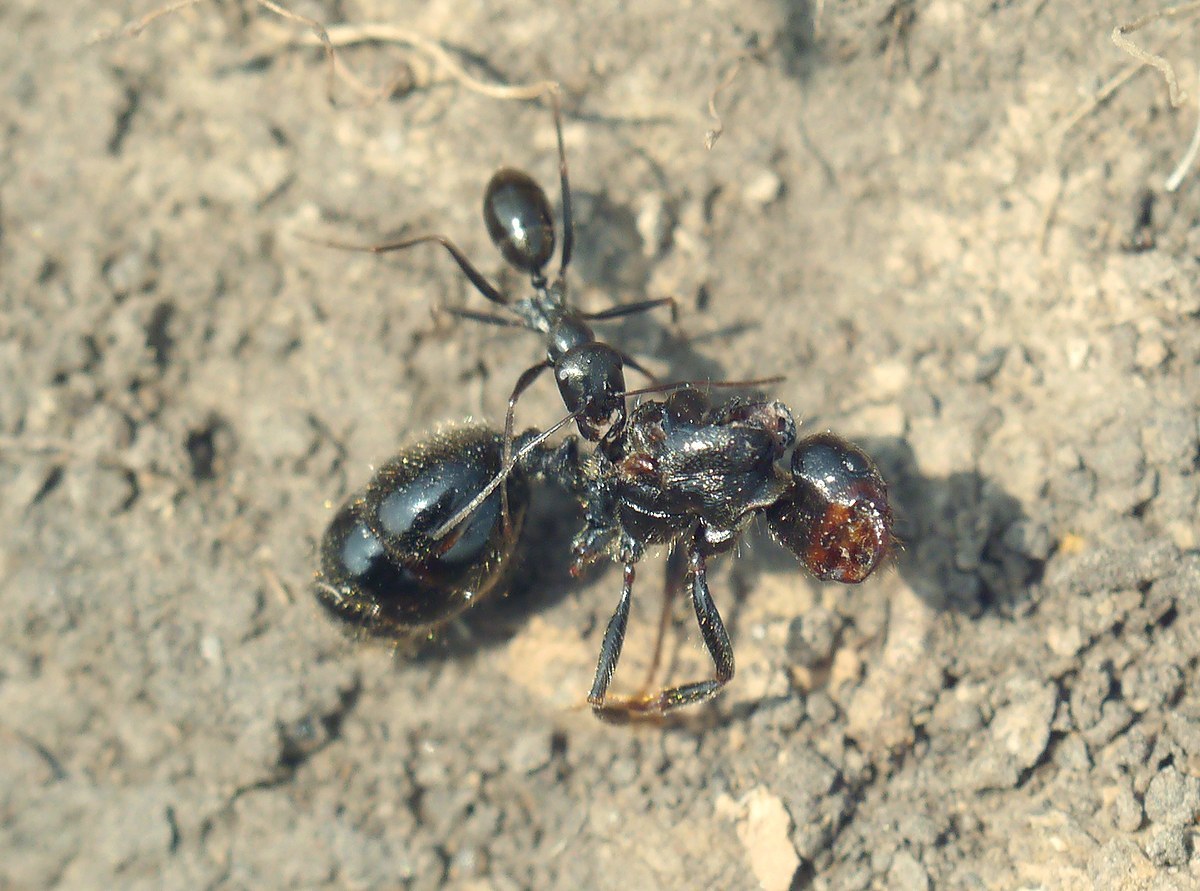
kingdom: Animalia
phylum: Arthropoda
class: Insecta
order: Hymenoptera
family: Formicidae
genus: Cataglyphis
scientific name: Cataglyphis aenescens
